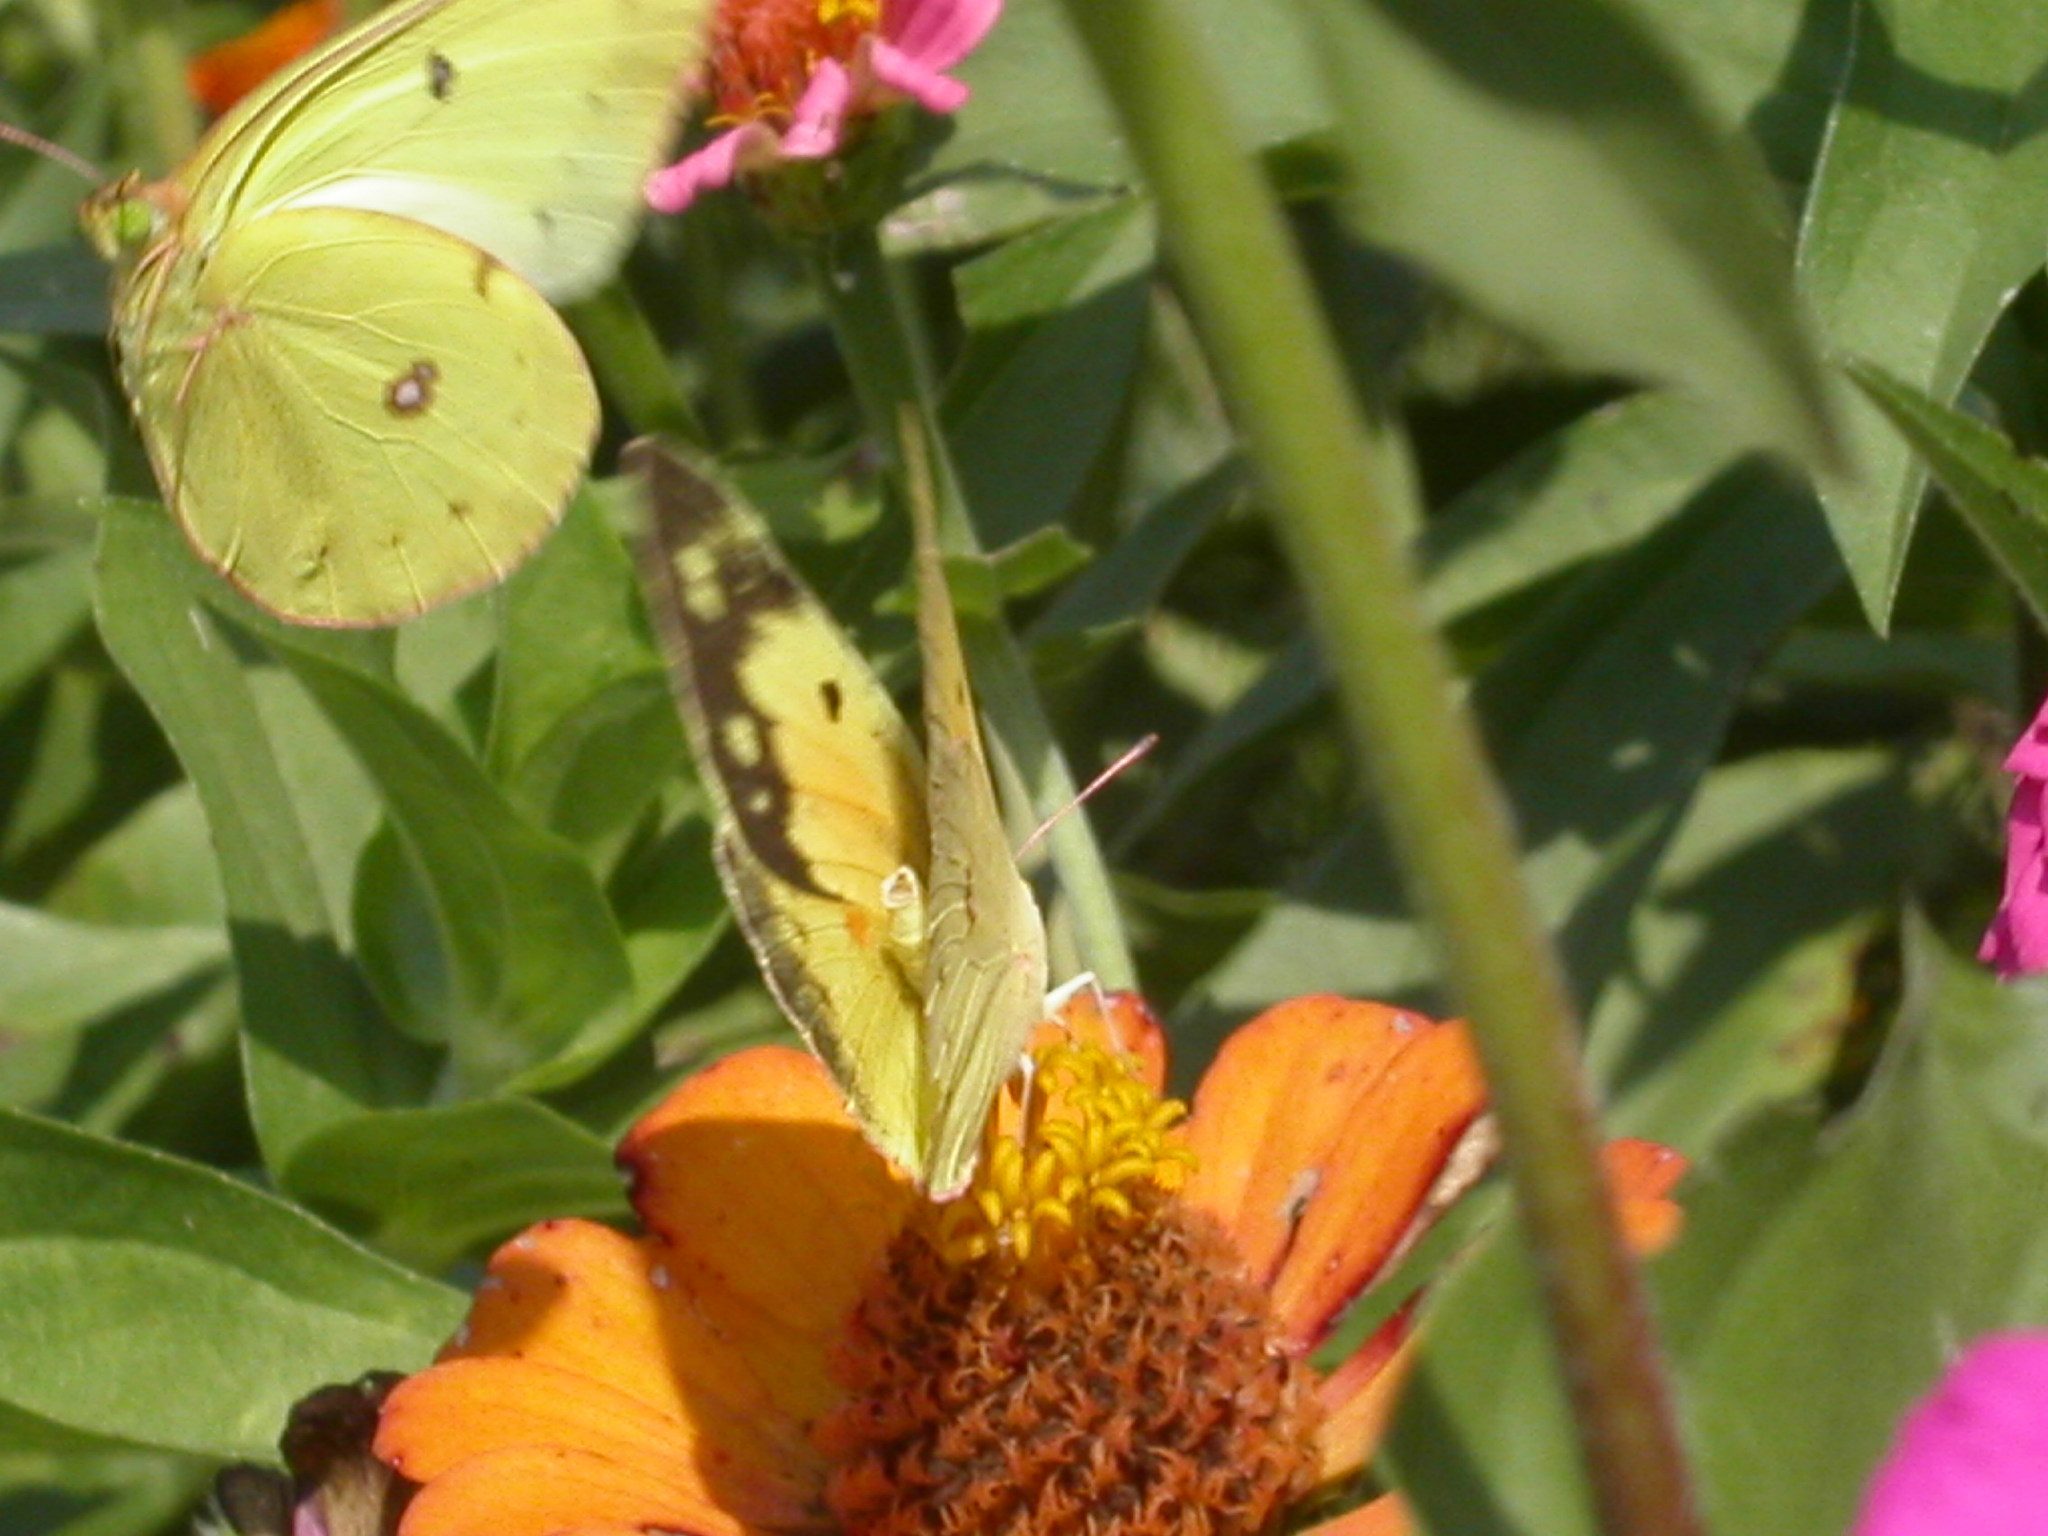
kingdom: Animalia
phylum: Arthropoda
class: Insecta
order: Lepidoptera
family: Pieridae
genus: Colias
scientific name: Colias eurytheme
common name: Alfalfa butterfly
